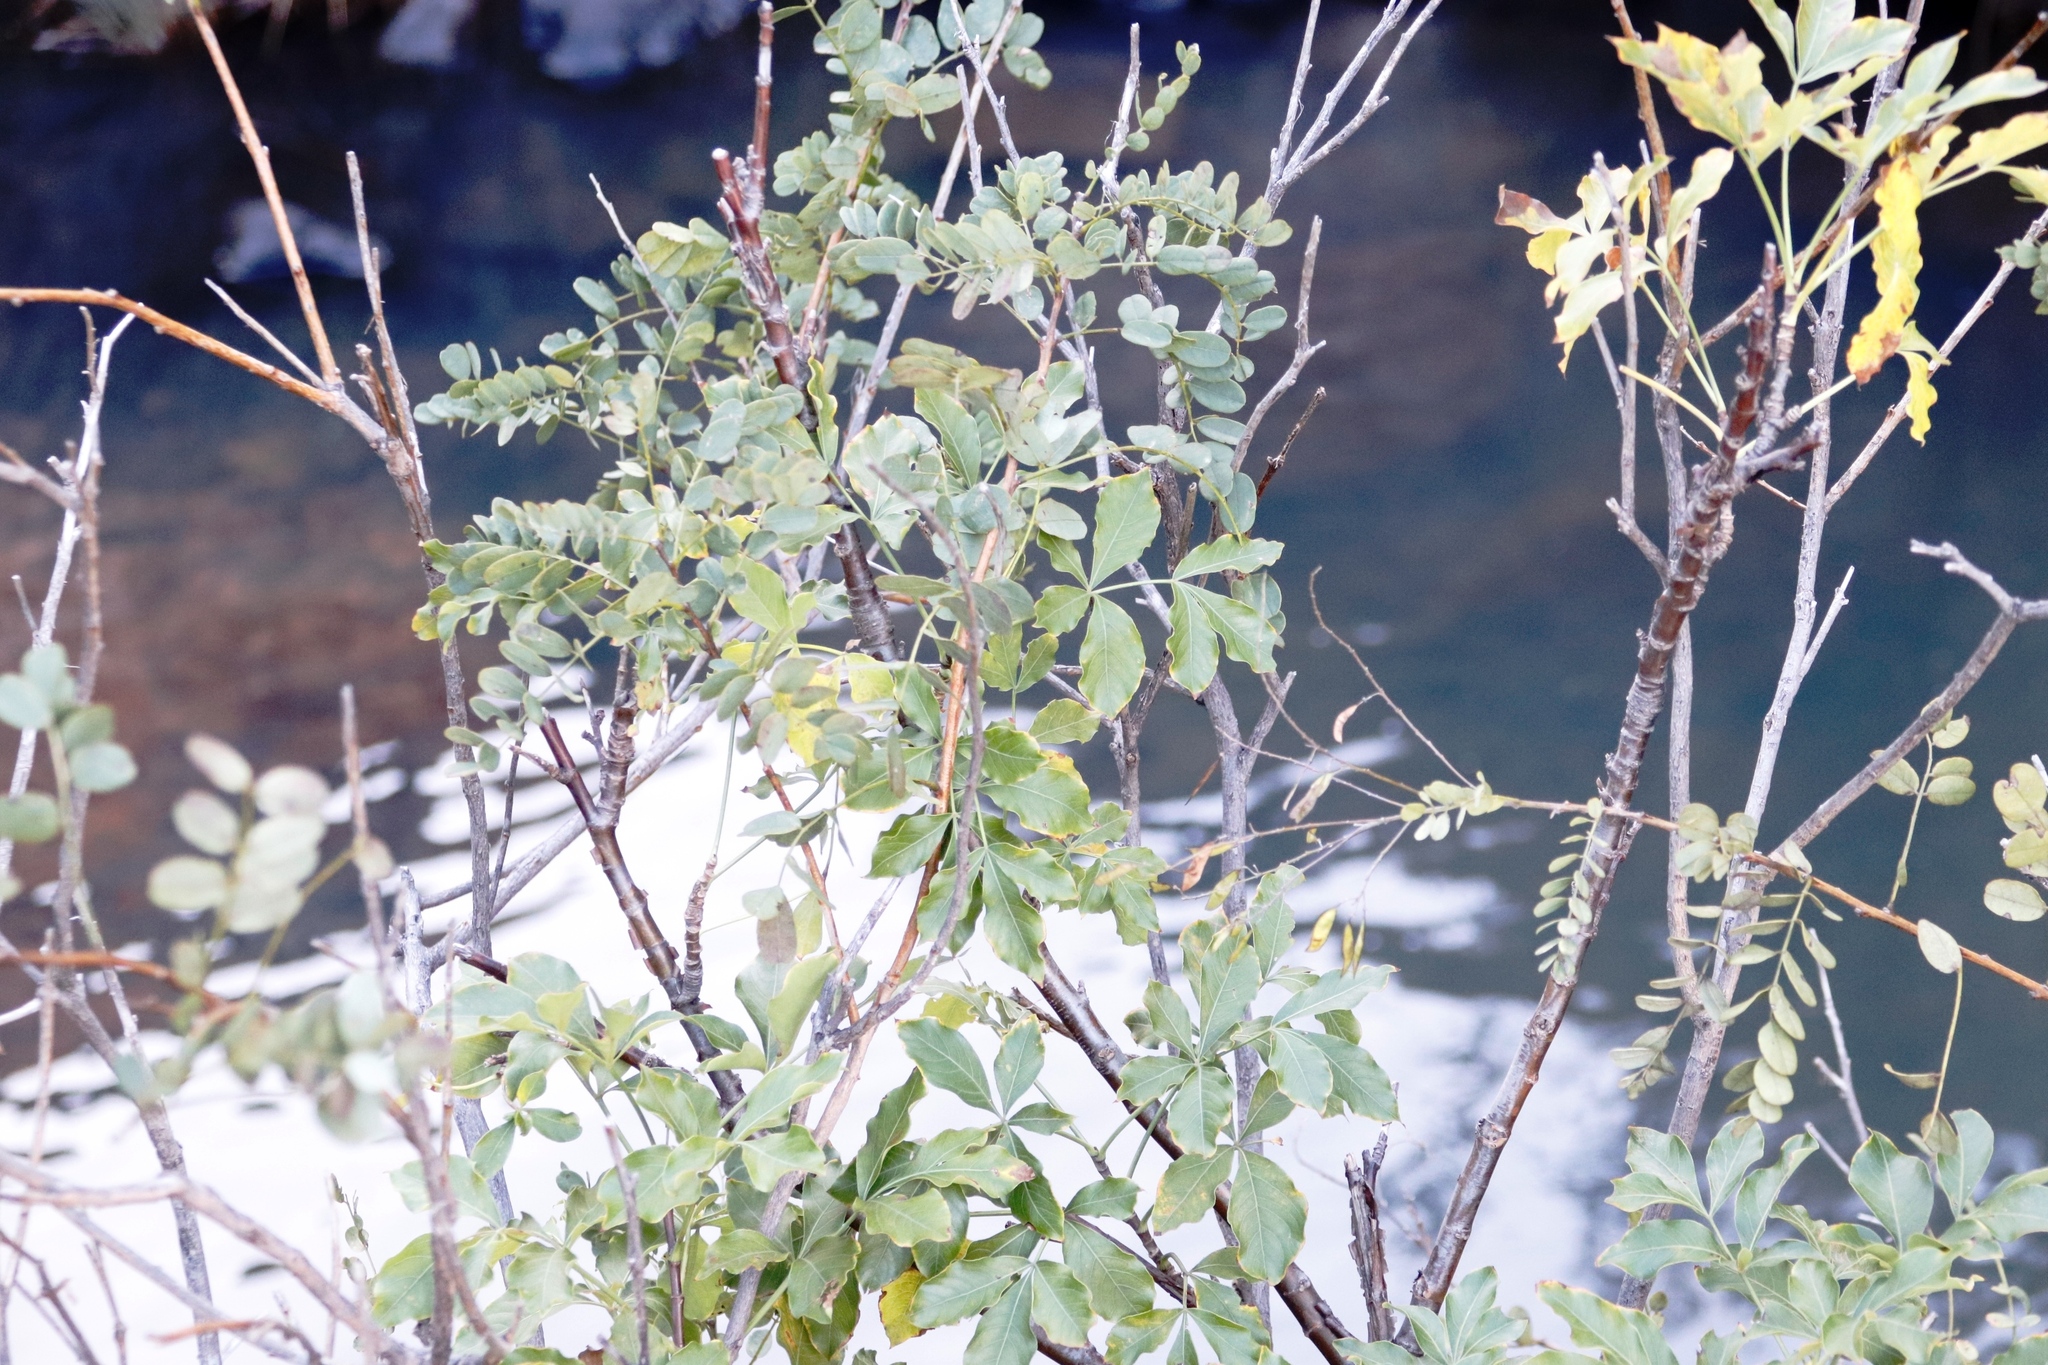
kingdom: Plantae
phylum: Tracheophyta
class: Magnoliopsida
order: Apiales
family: Apiaceae
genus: Heteromorpha
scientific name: Heteromorpha arborescens
